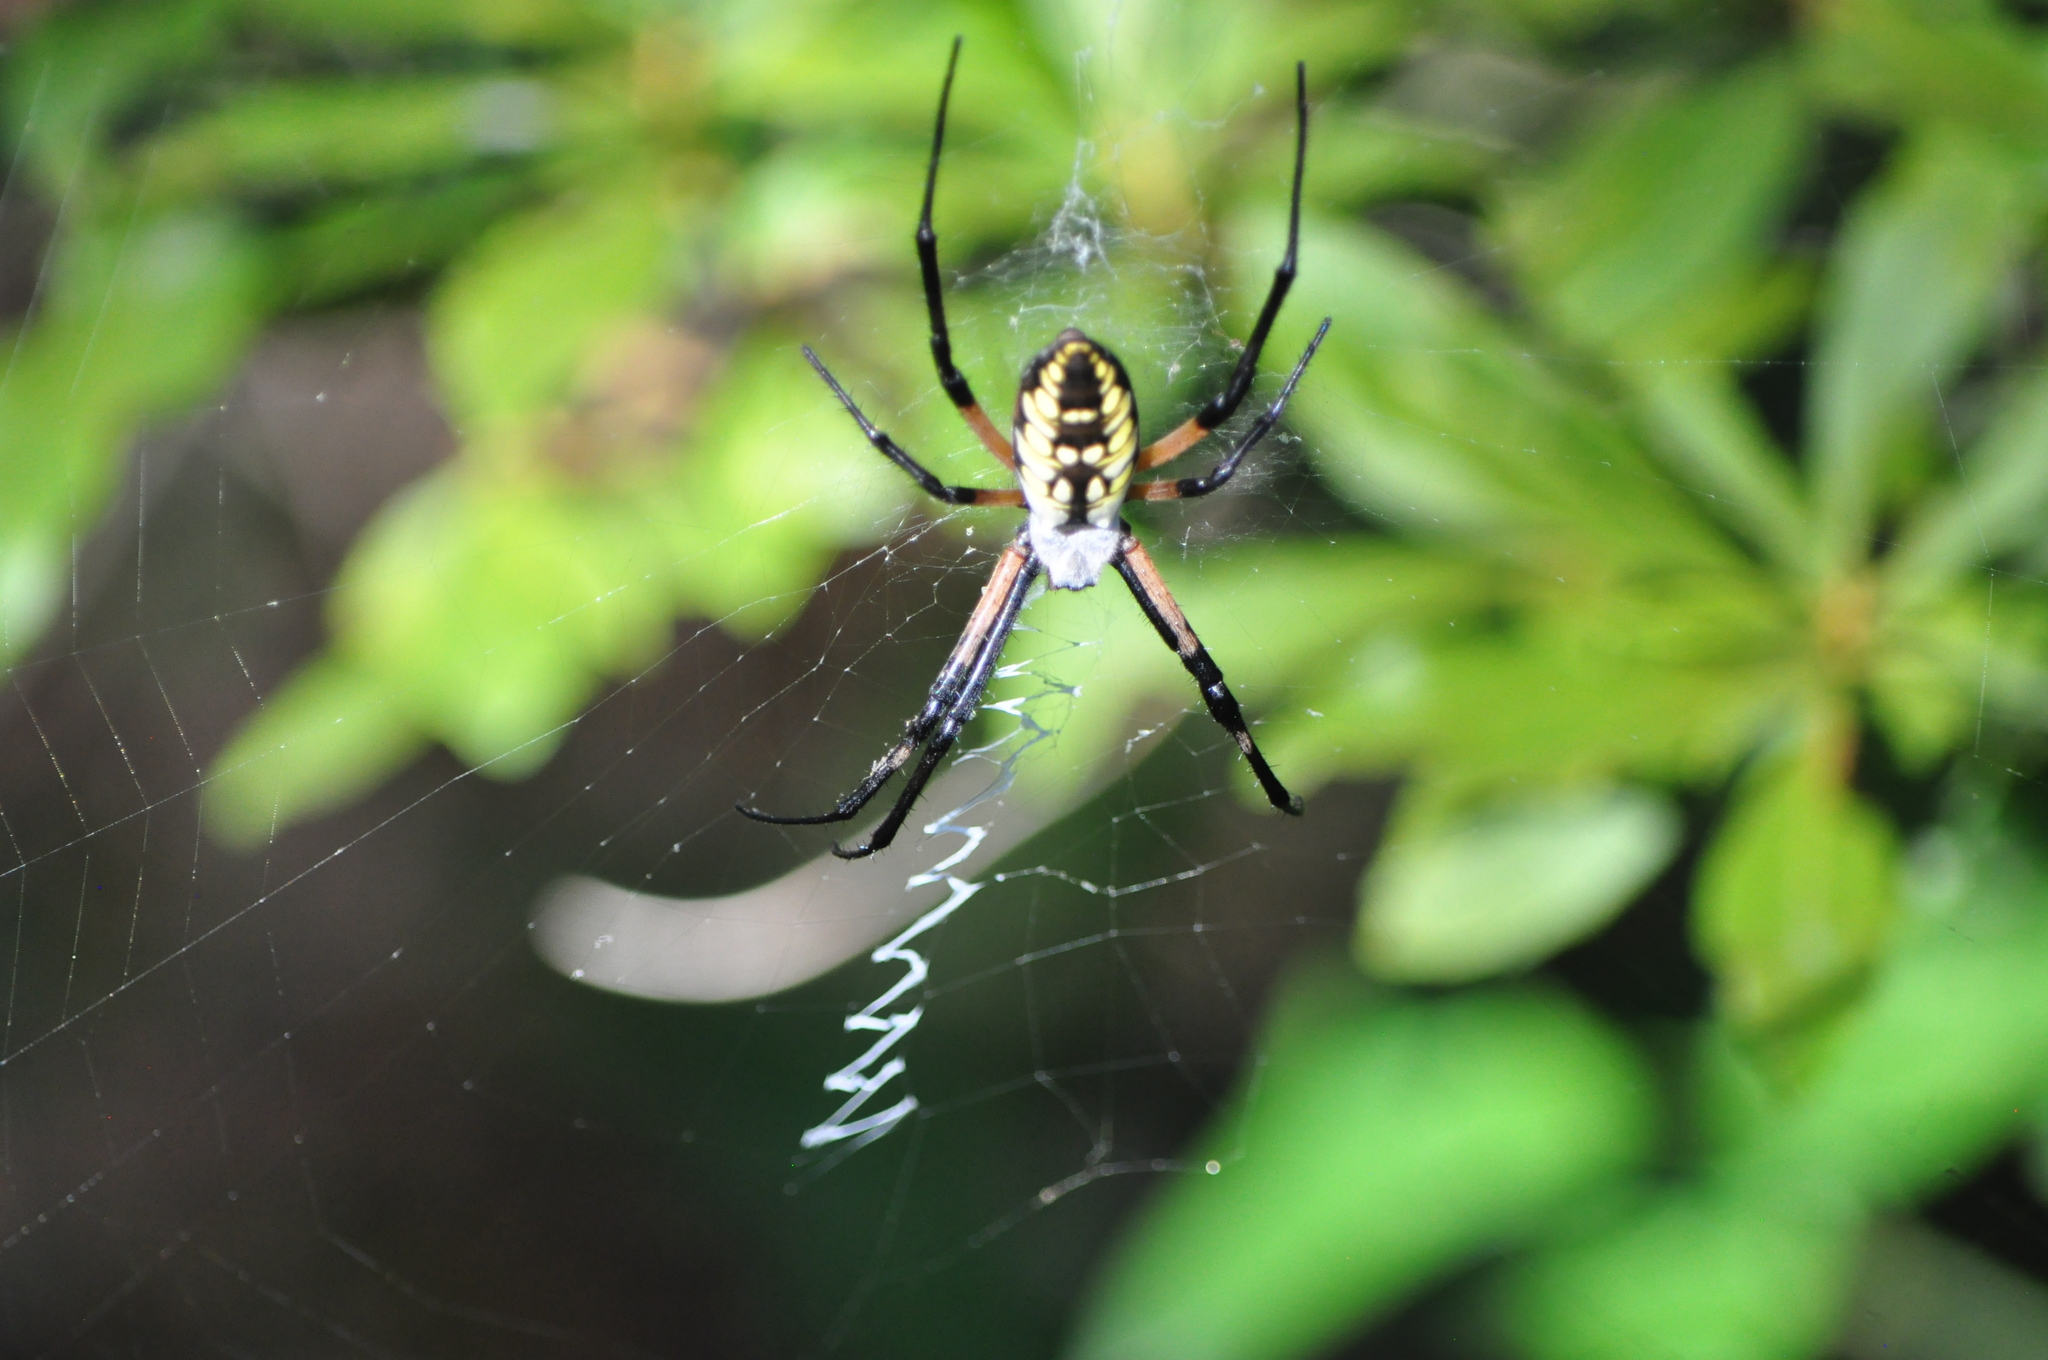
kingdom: Animalia
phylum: Arthropoda
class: Arachnida
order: Araneae
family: Araneidae
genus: Argiope
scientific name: Argiope aurantia
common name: Orb weavers
